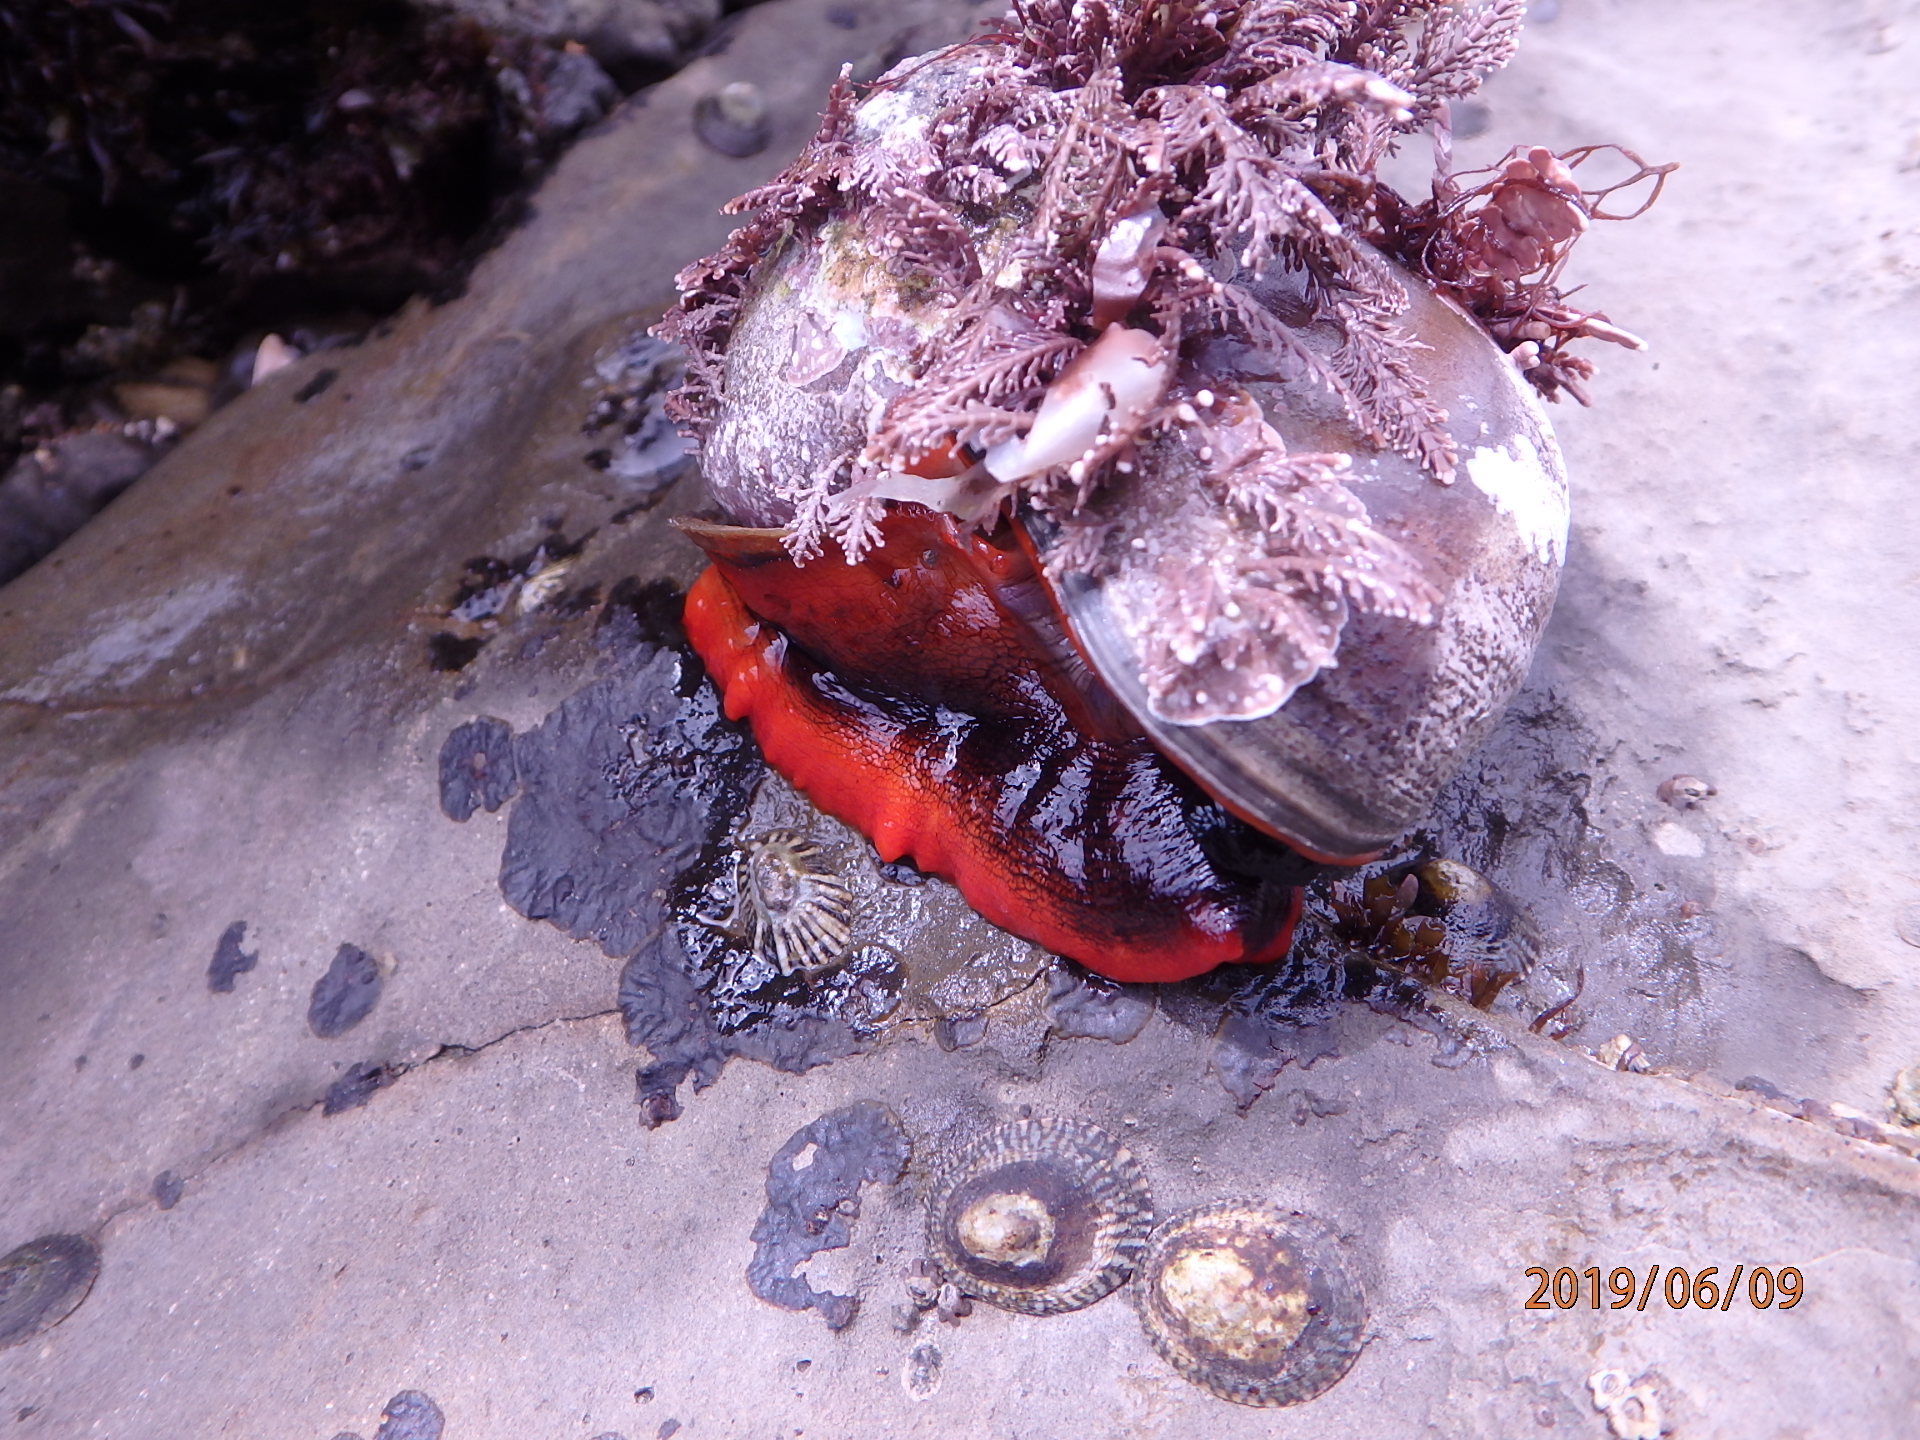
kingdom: Animalia
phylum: Mollusca
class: Gastropoda
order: Trochida
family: Tegulidae
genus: Norrisia
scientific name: Norrisia norrisii
